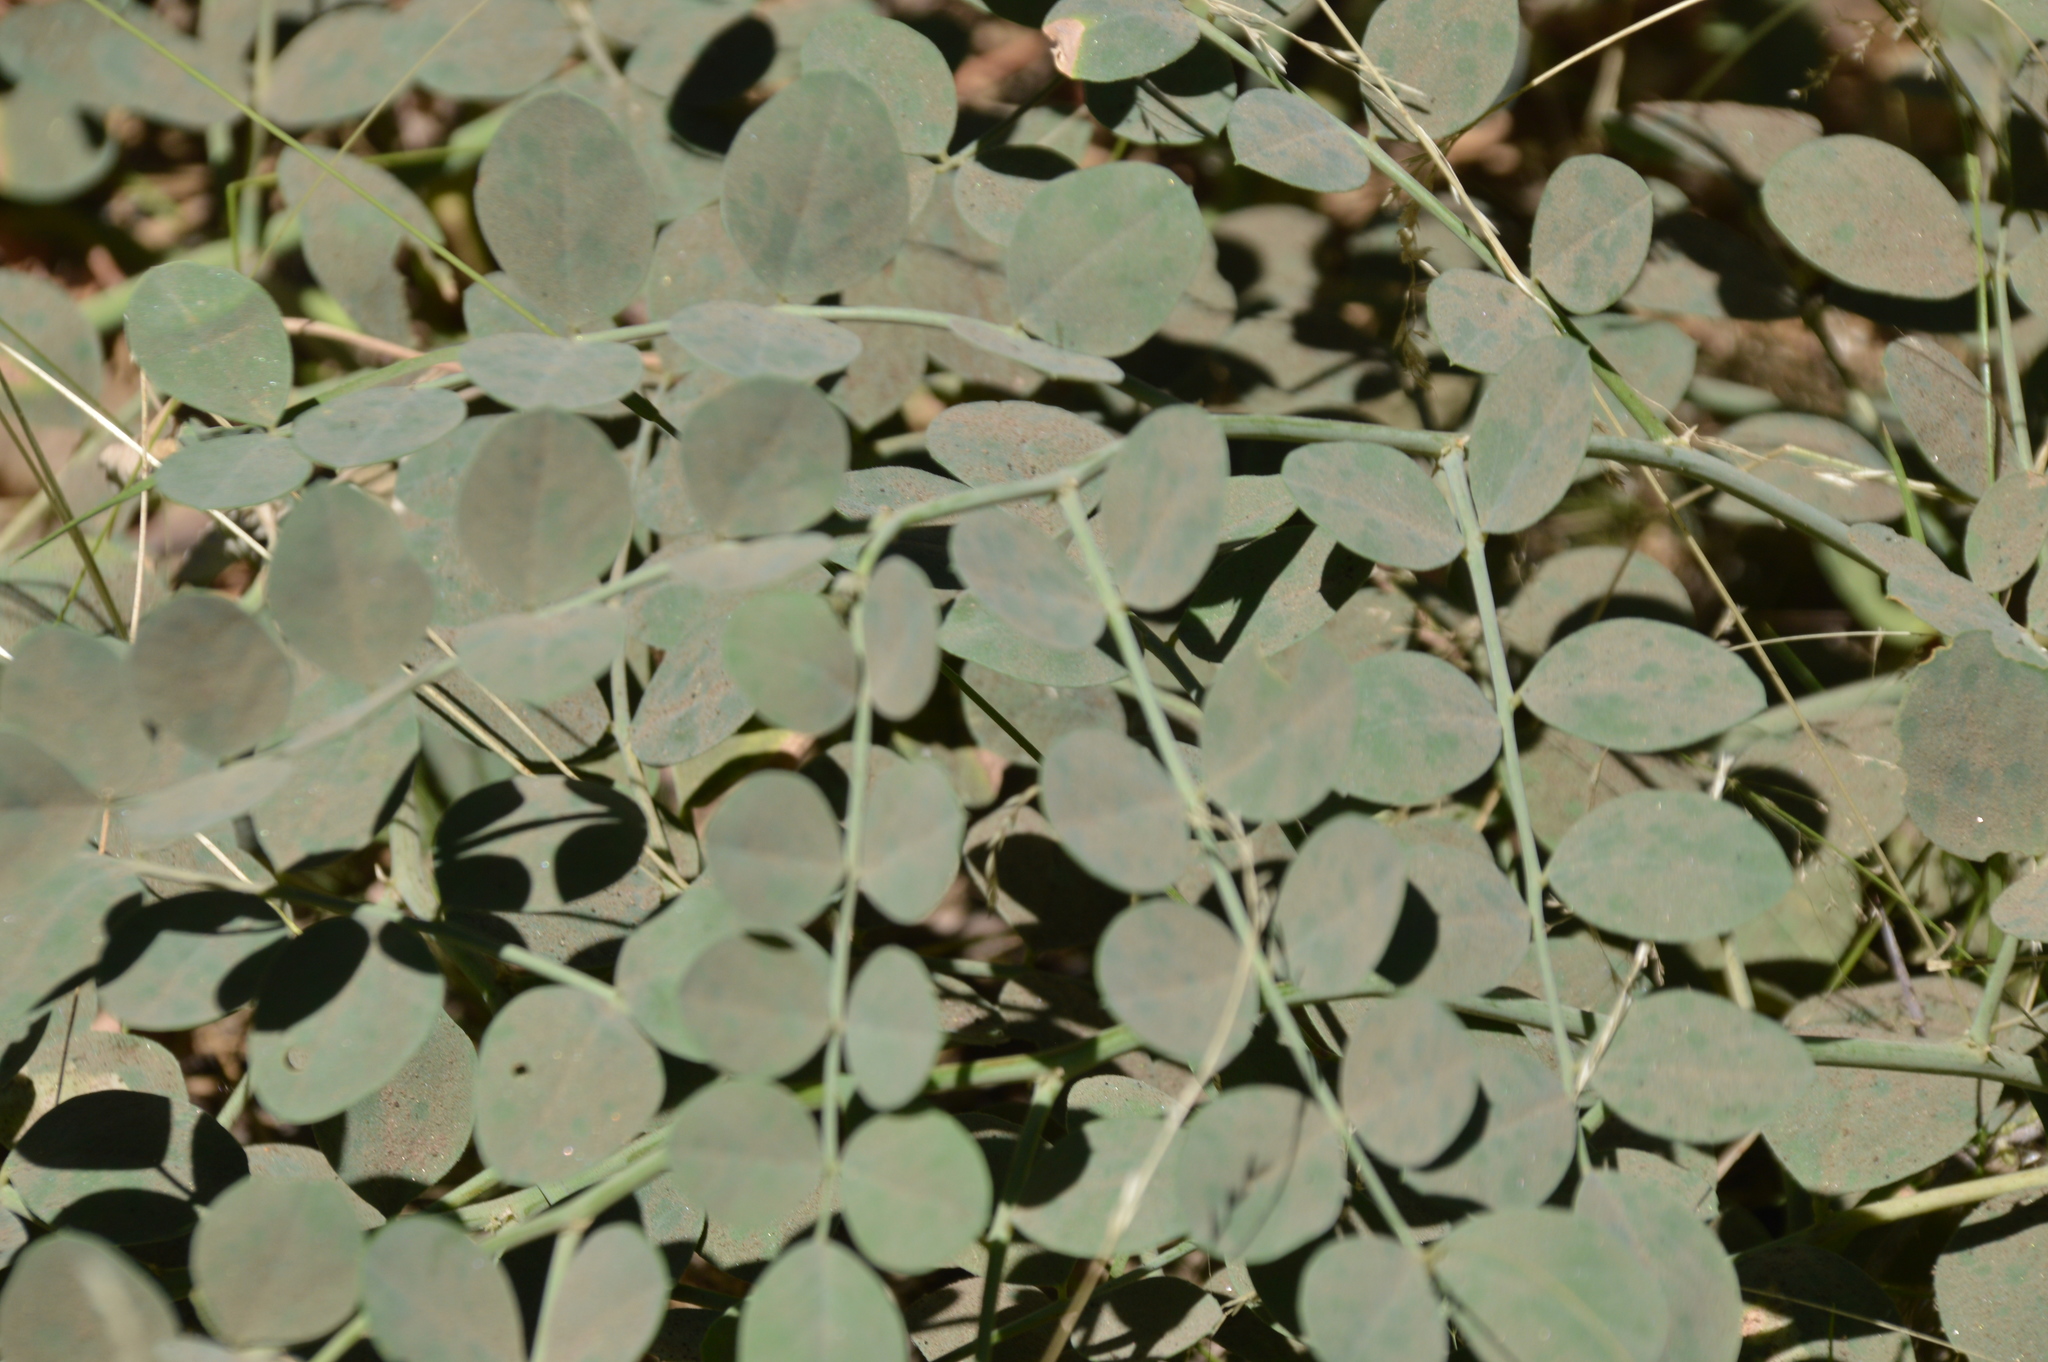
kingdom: Plantae
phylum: Tracheophyta
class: Magnoliopsida
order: Fabales
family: Fabaceae
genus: Hosackia
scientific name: Hosackia crassifolia
